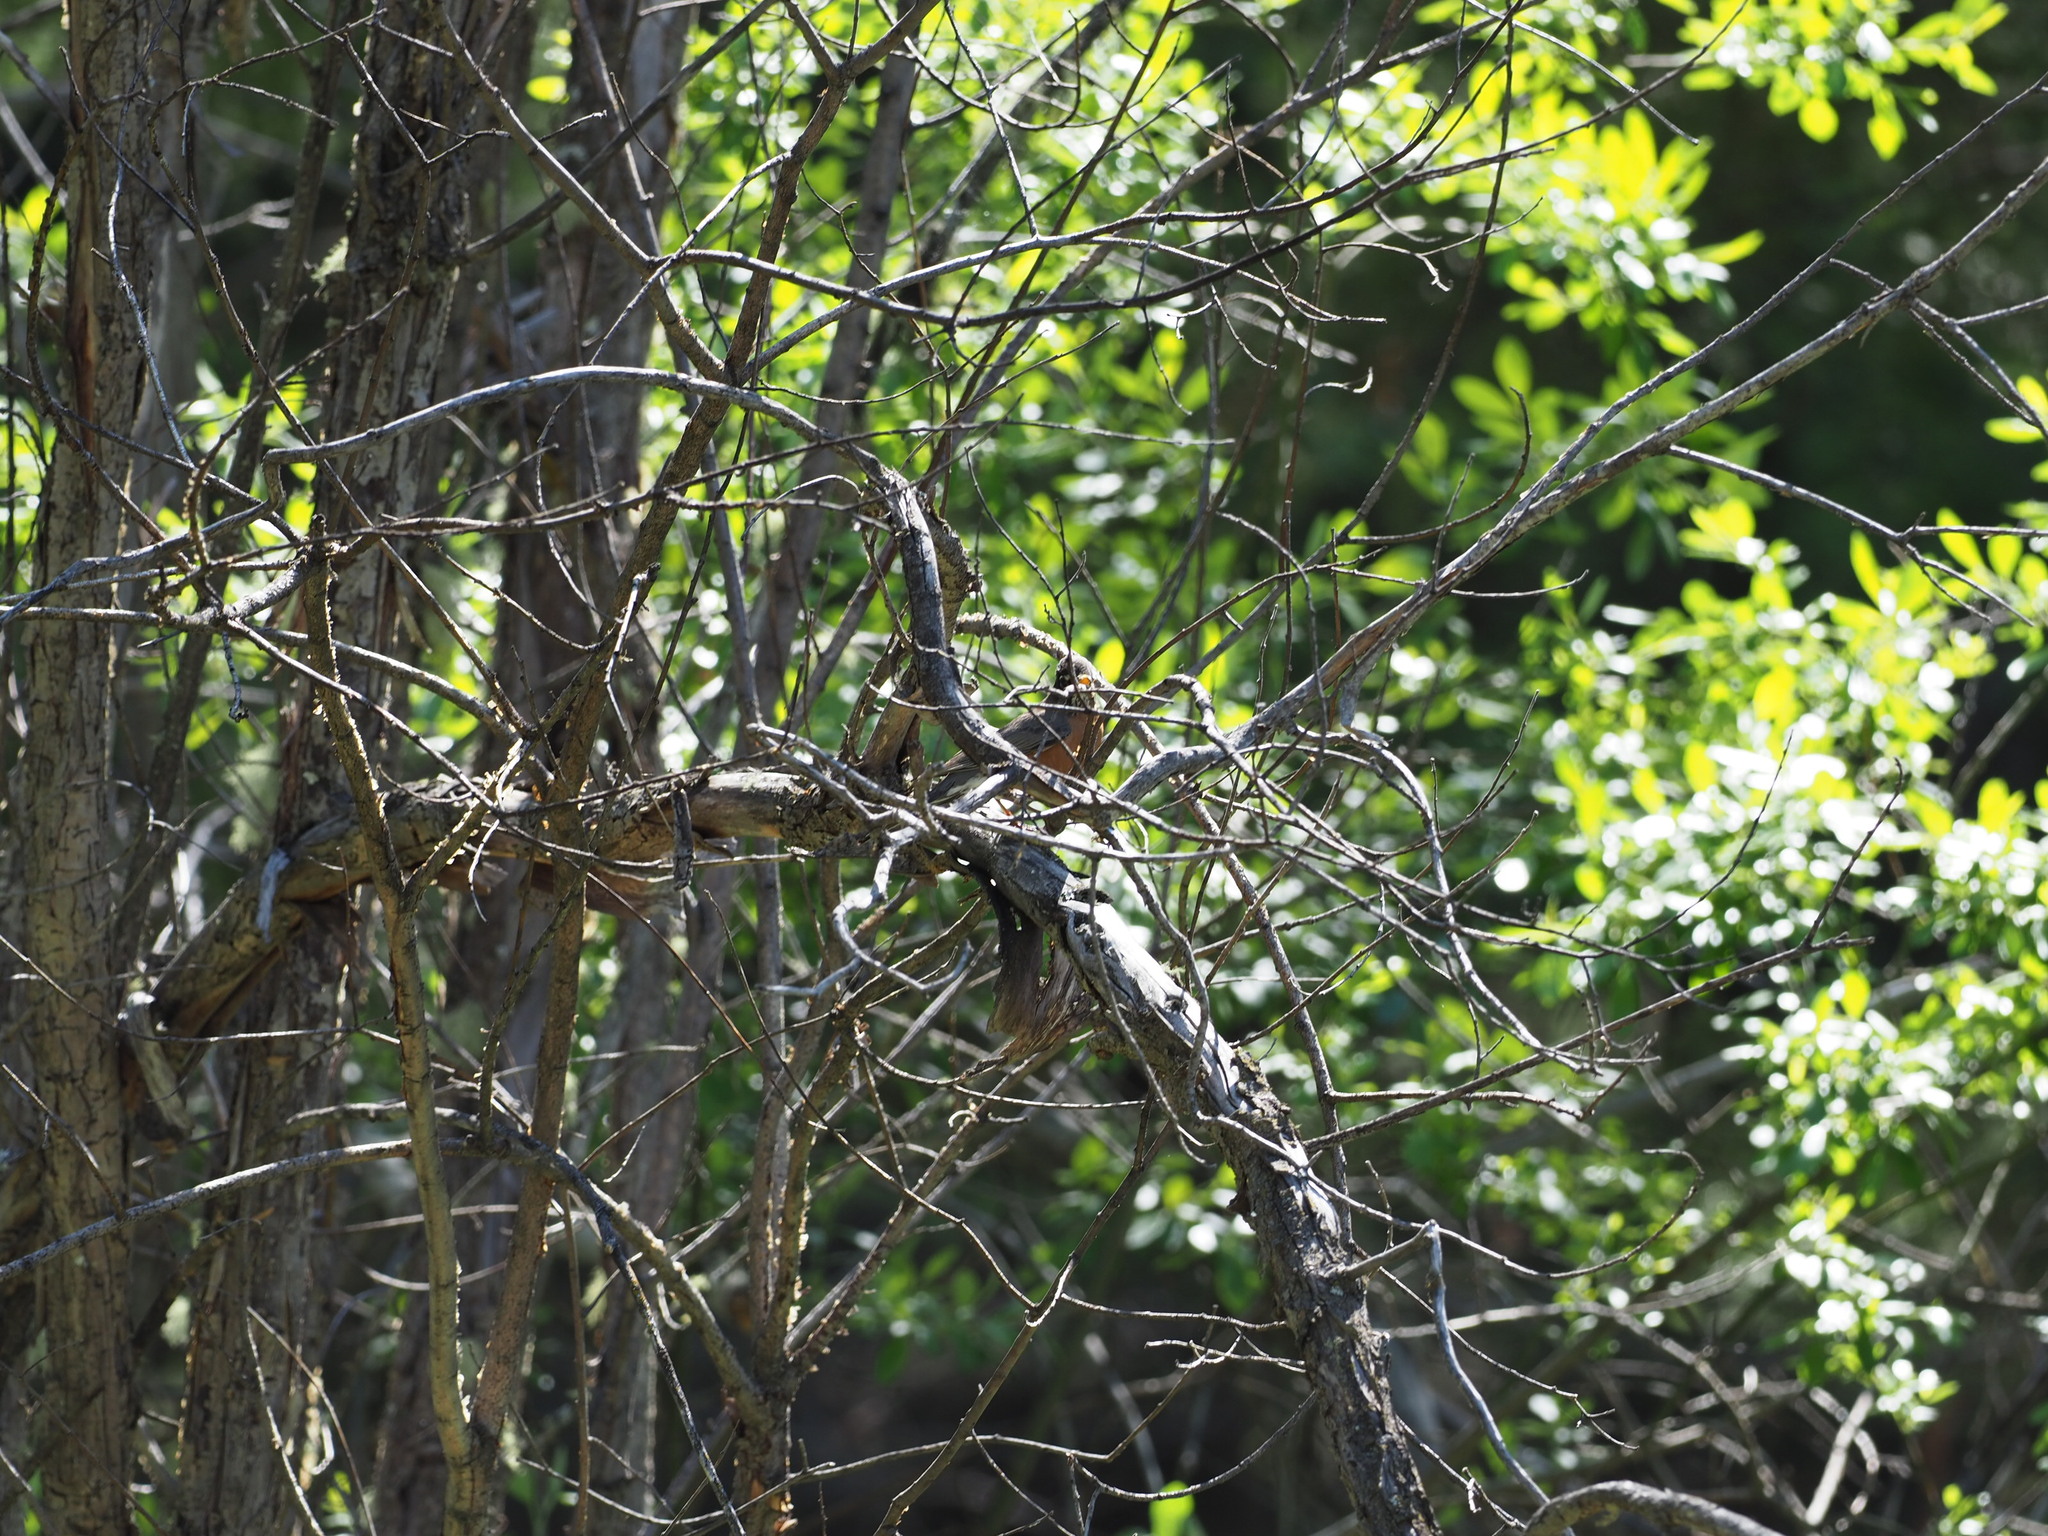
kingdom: Animalia
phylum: Chordata
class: Aves
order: Passeriformes
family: Turdidae
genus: Turdus
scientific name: Turdus migratorius
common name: American robin
